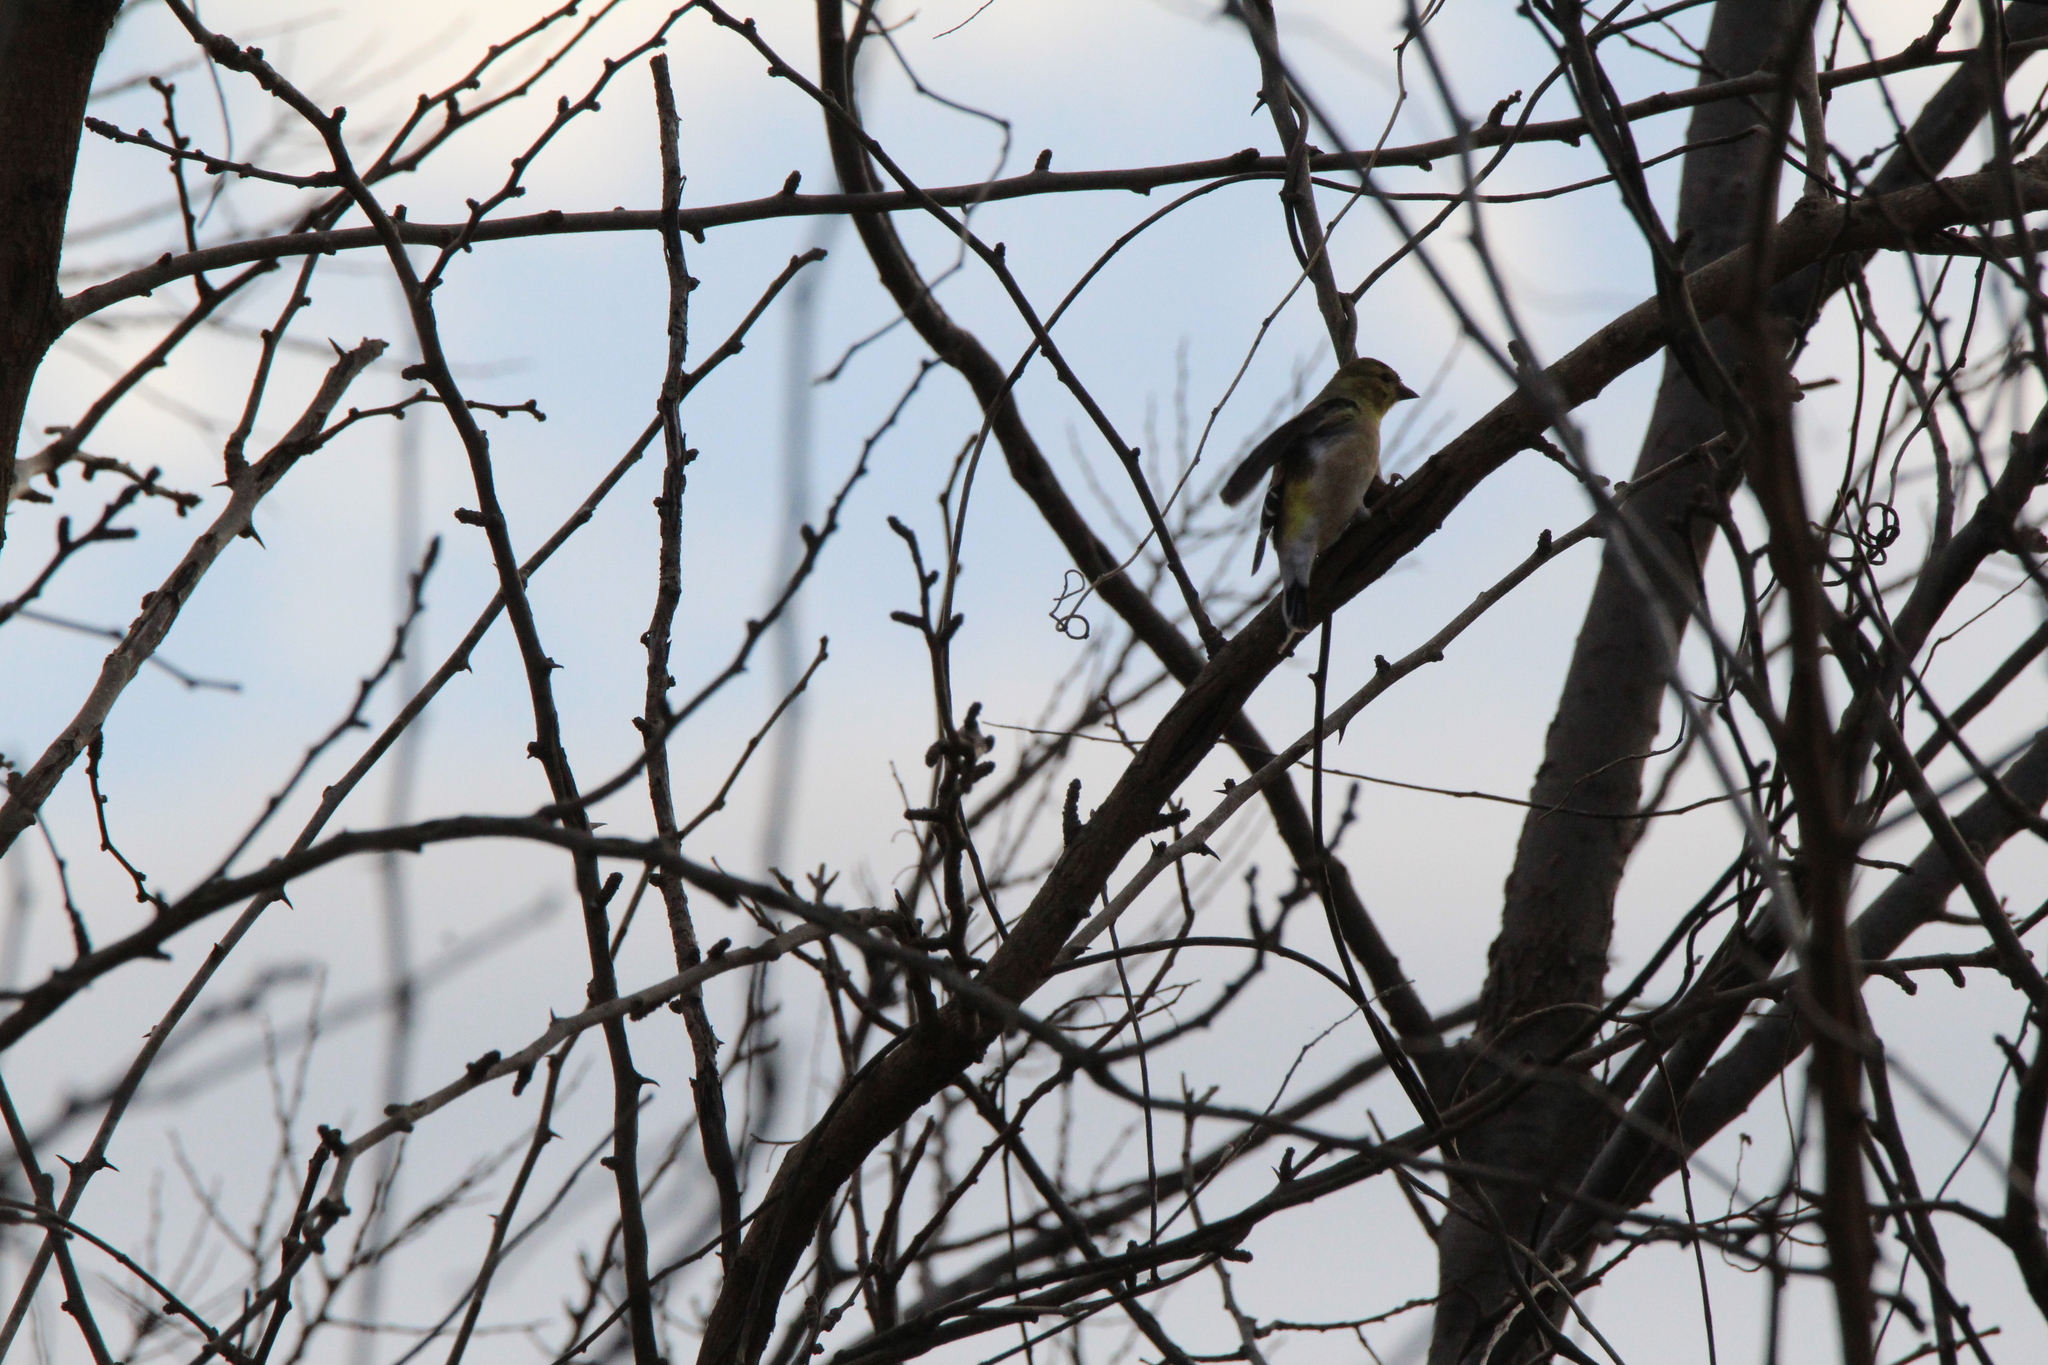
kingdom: Animalia
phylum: Chordata
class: Aves
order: Passeriformes
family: Fringillidae
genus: Spinus
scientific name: Spinus tristis
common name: American goldfinch
